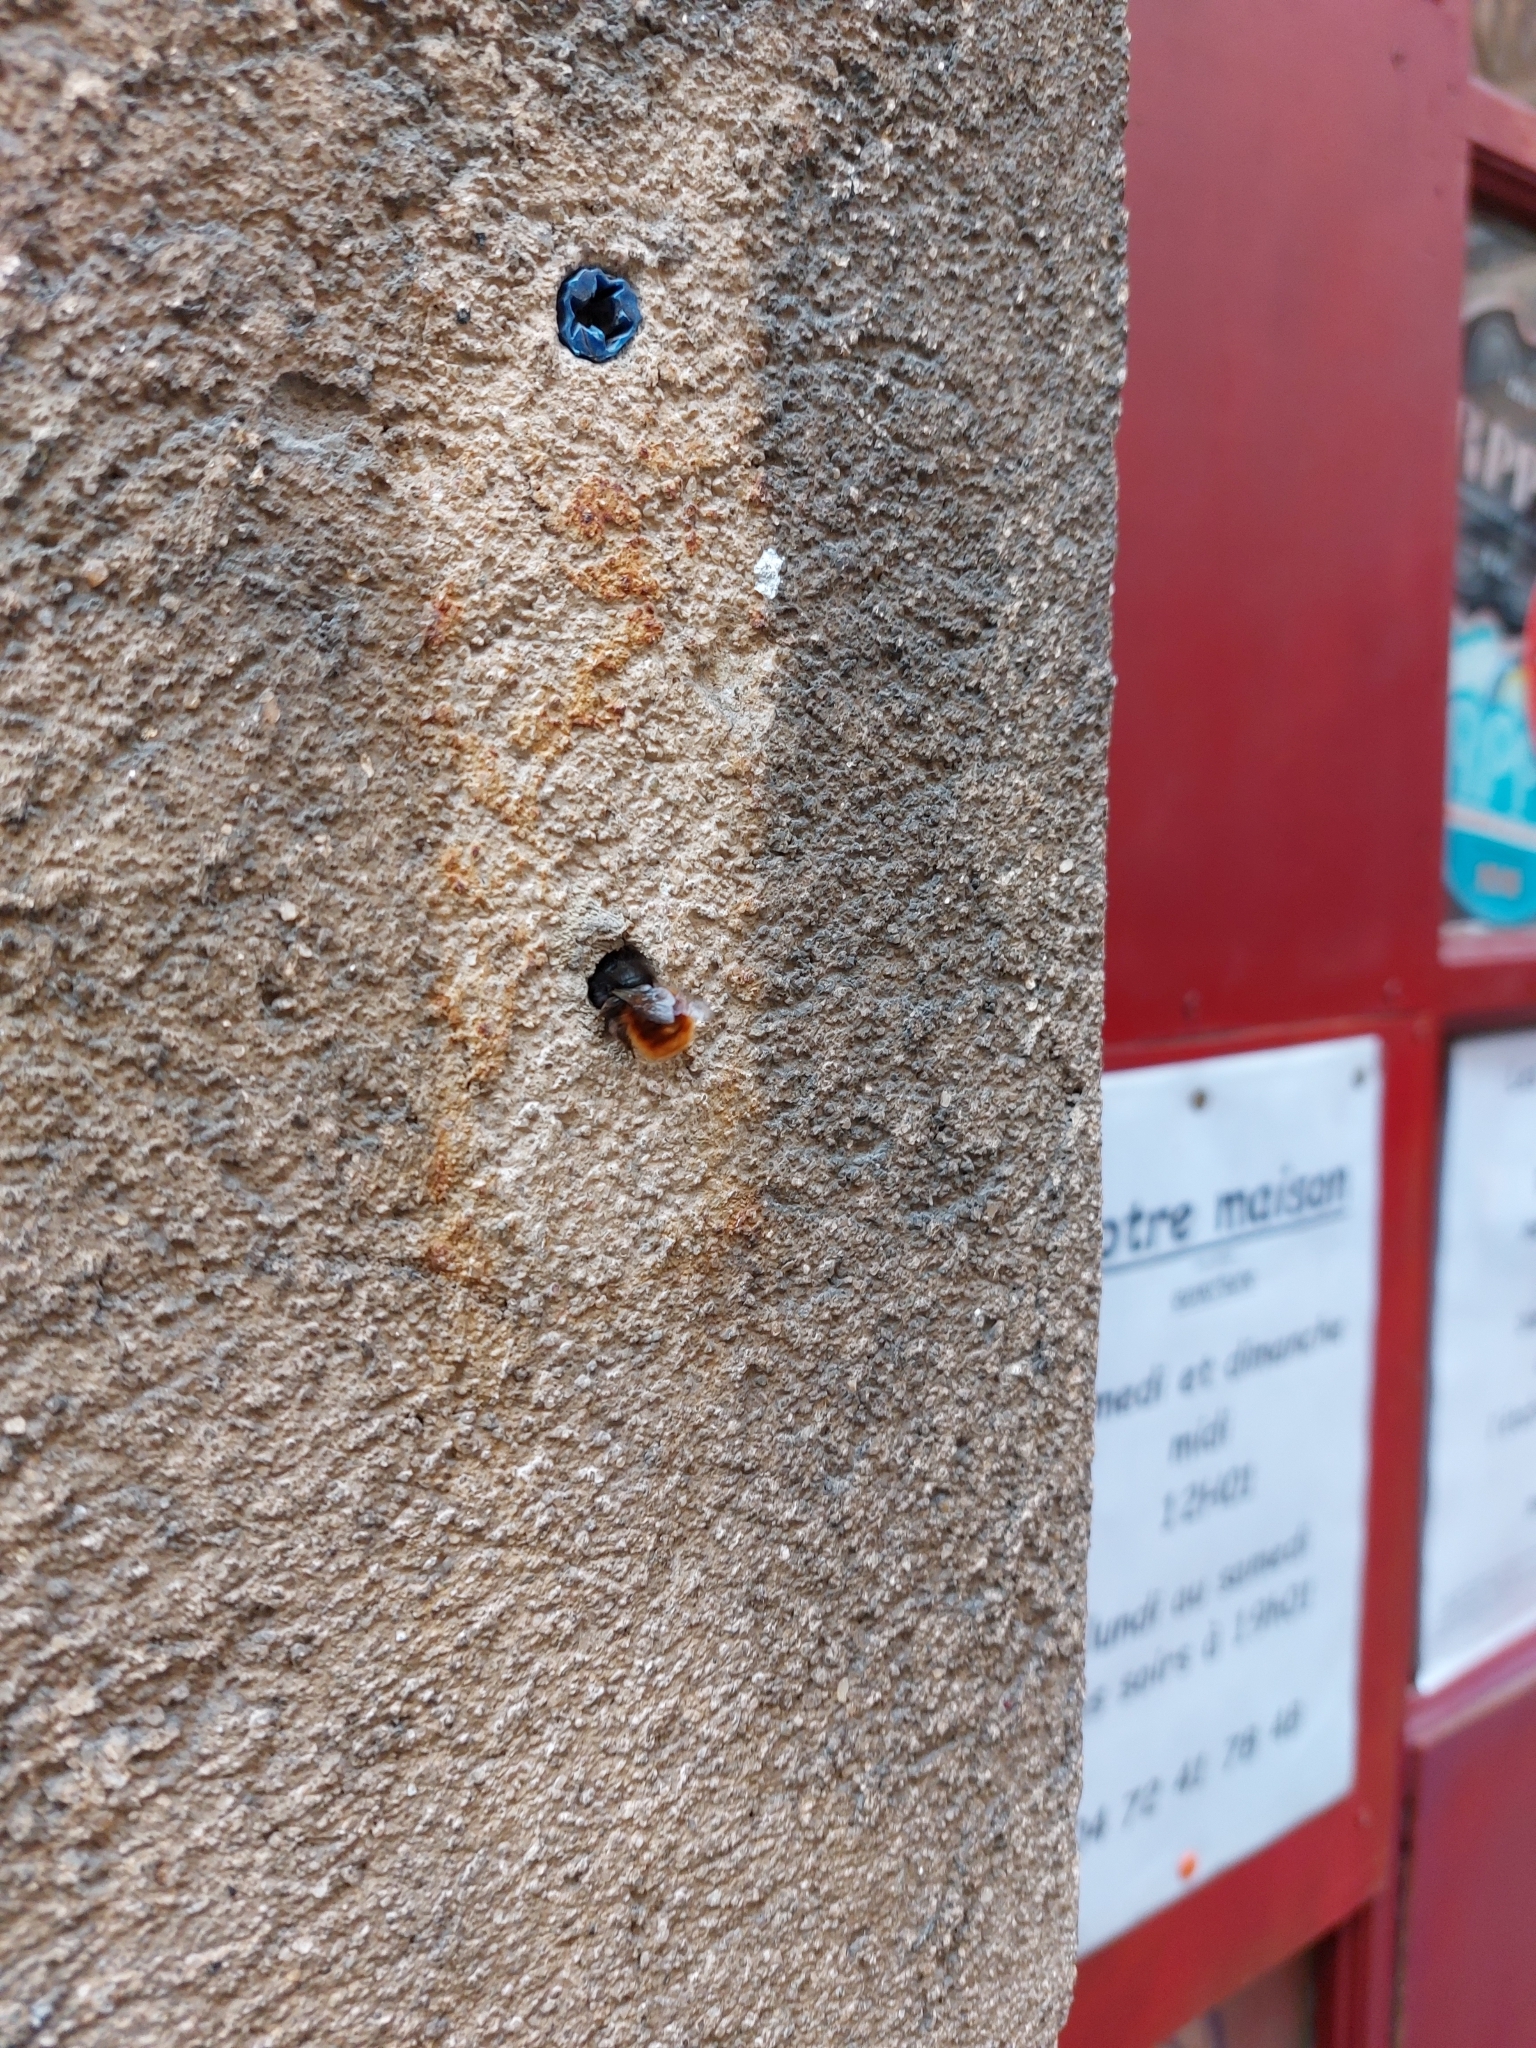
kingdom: Animalia
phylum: Arthropoda
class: Insecta
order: Hymenoptera
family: Megachilidae
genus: Osmia
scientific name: Osmia cornuta
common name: Mason bee
